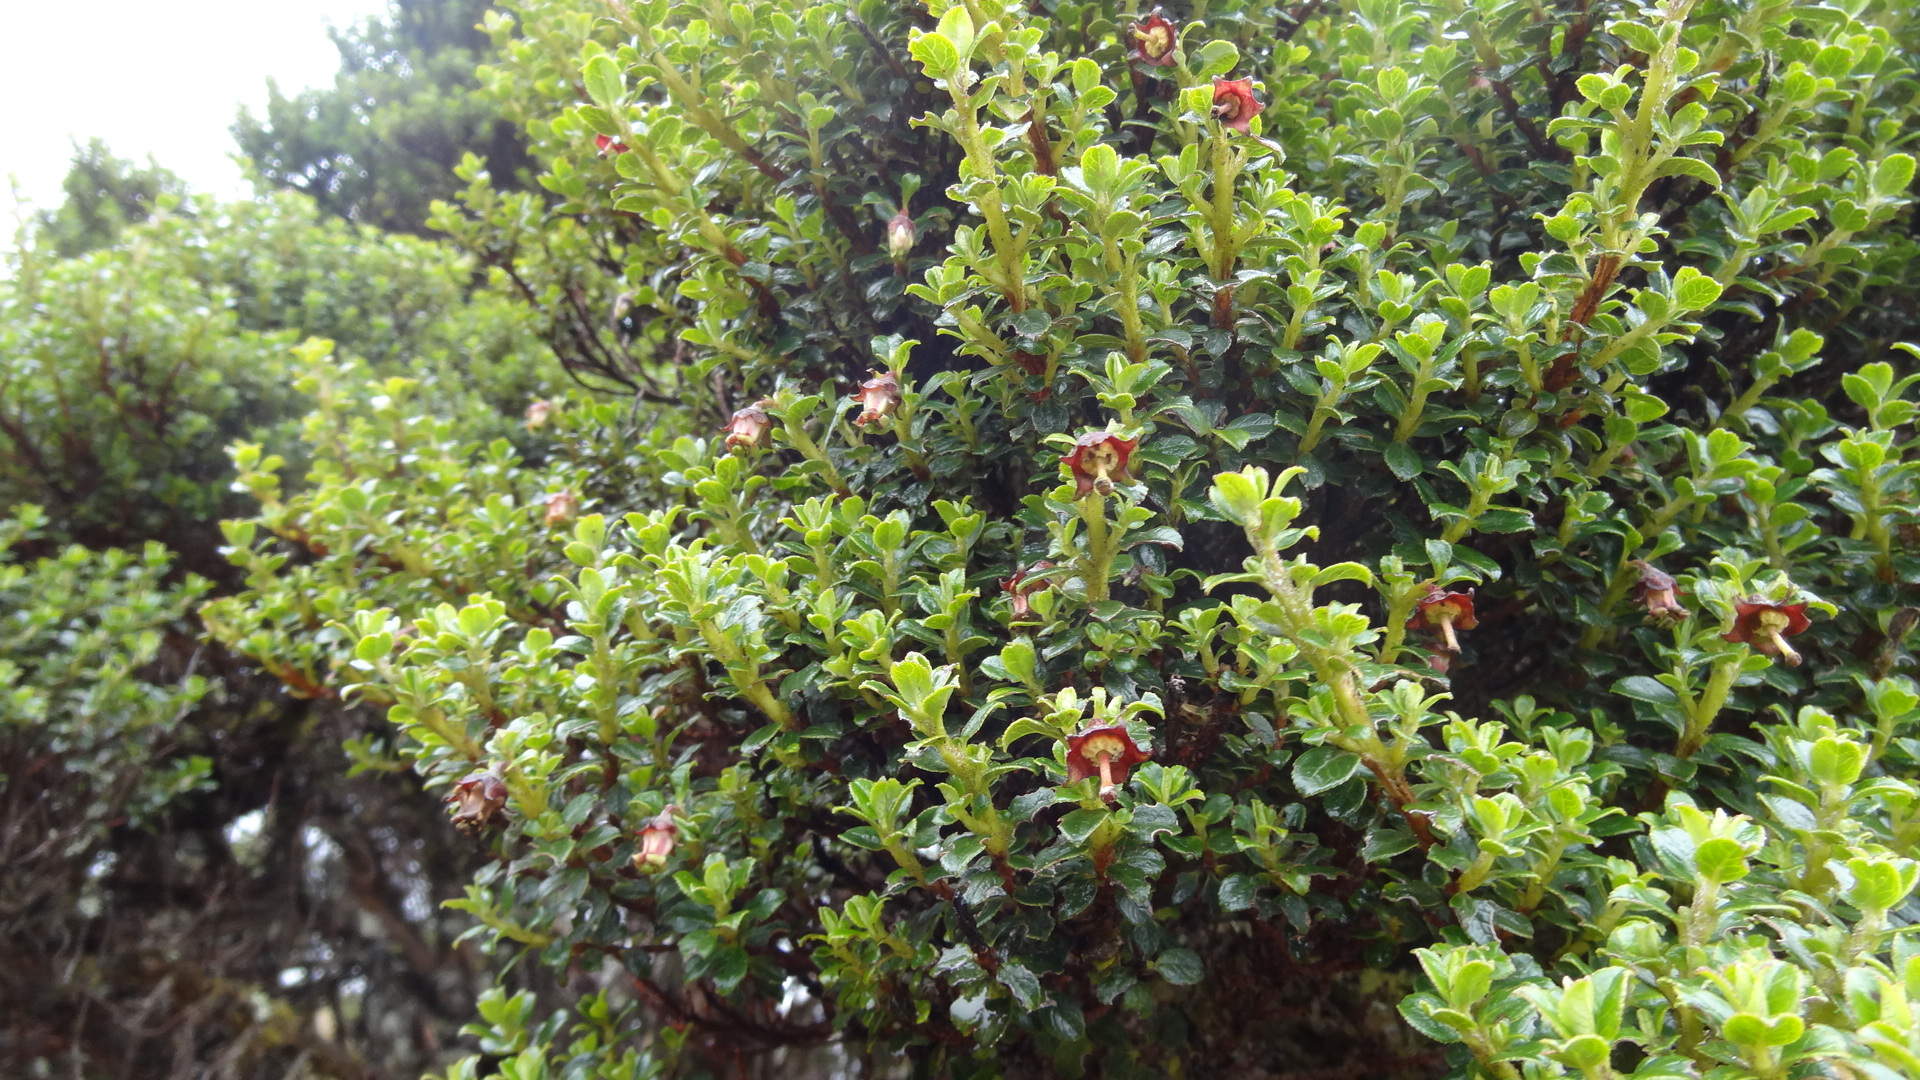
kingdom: Plantae
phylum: Tracheophyta
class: Magnoliopsida
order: Escalloniales
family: Escalloniaceae
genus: Escallonia
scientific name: Escallonia myrtilloides
